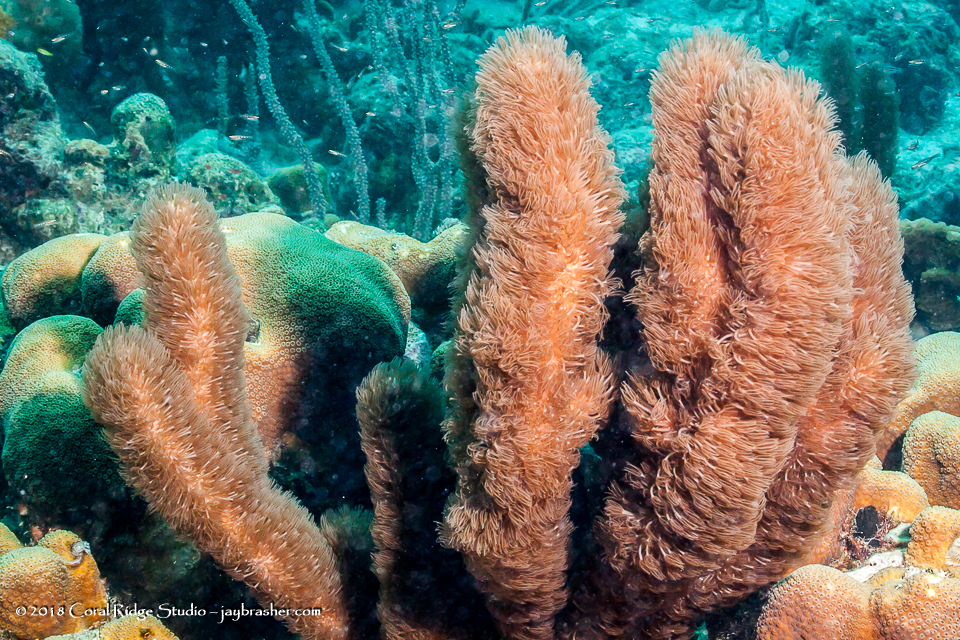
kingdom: Animalia
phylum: Cnidaria
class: Anthozoa
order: Scleralcyonacea
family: Briareidae
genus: Briareum
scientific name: Briareum asbestinum
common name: Corky sea finger
